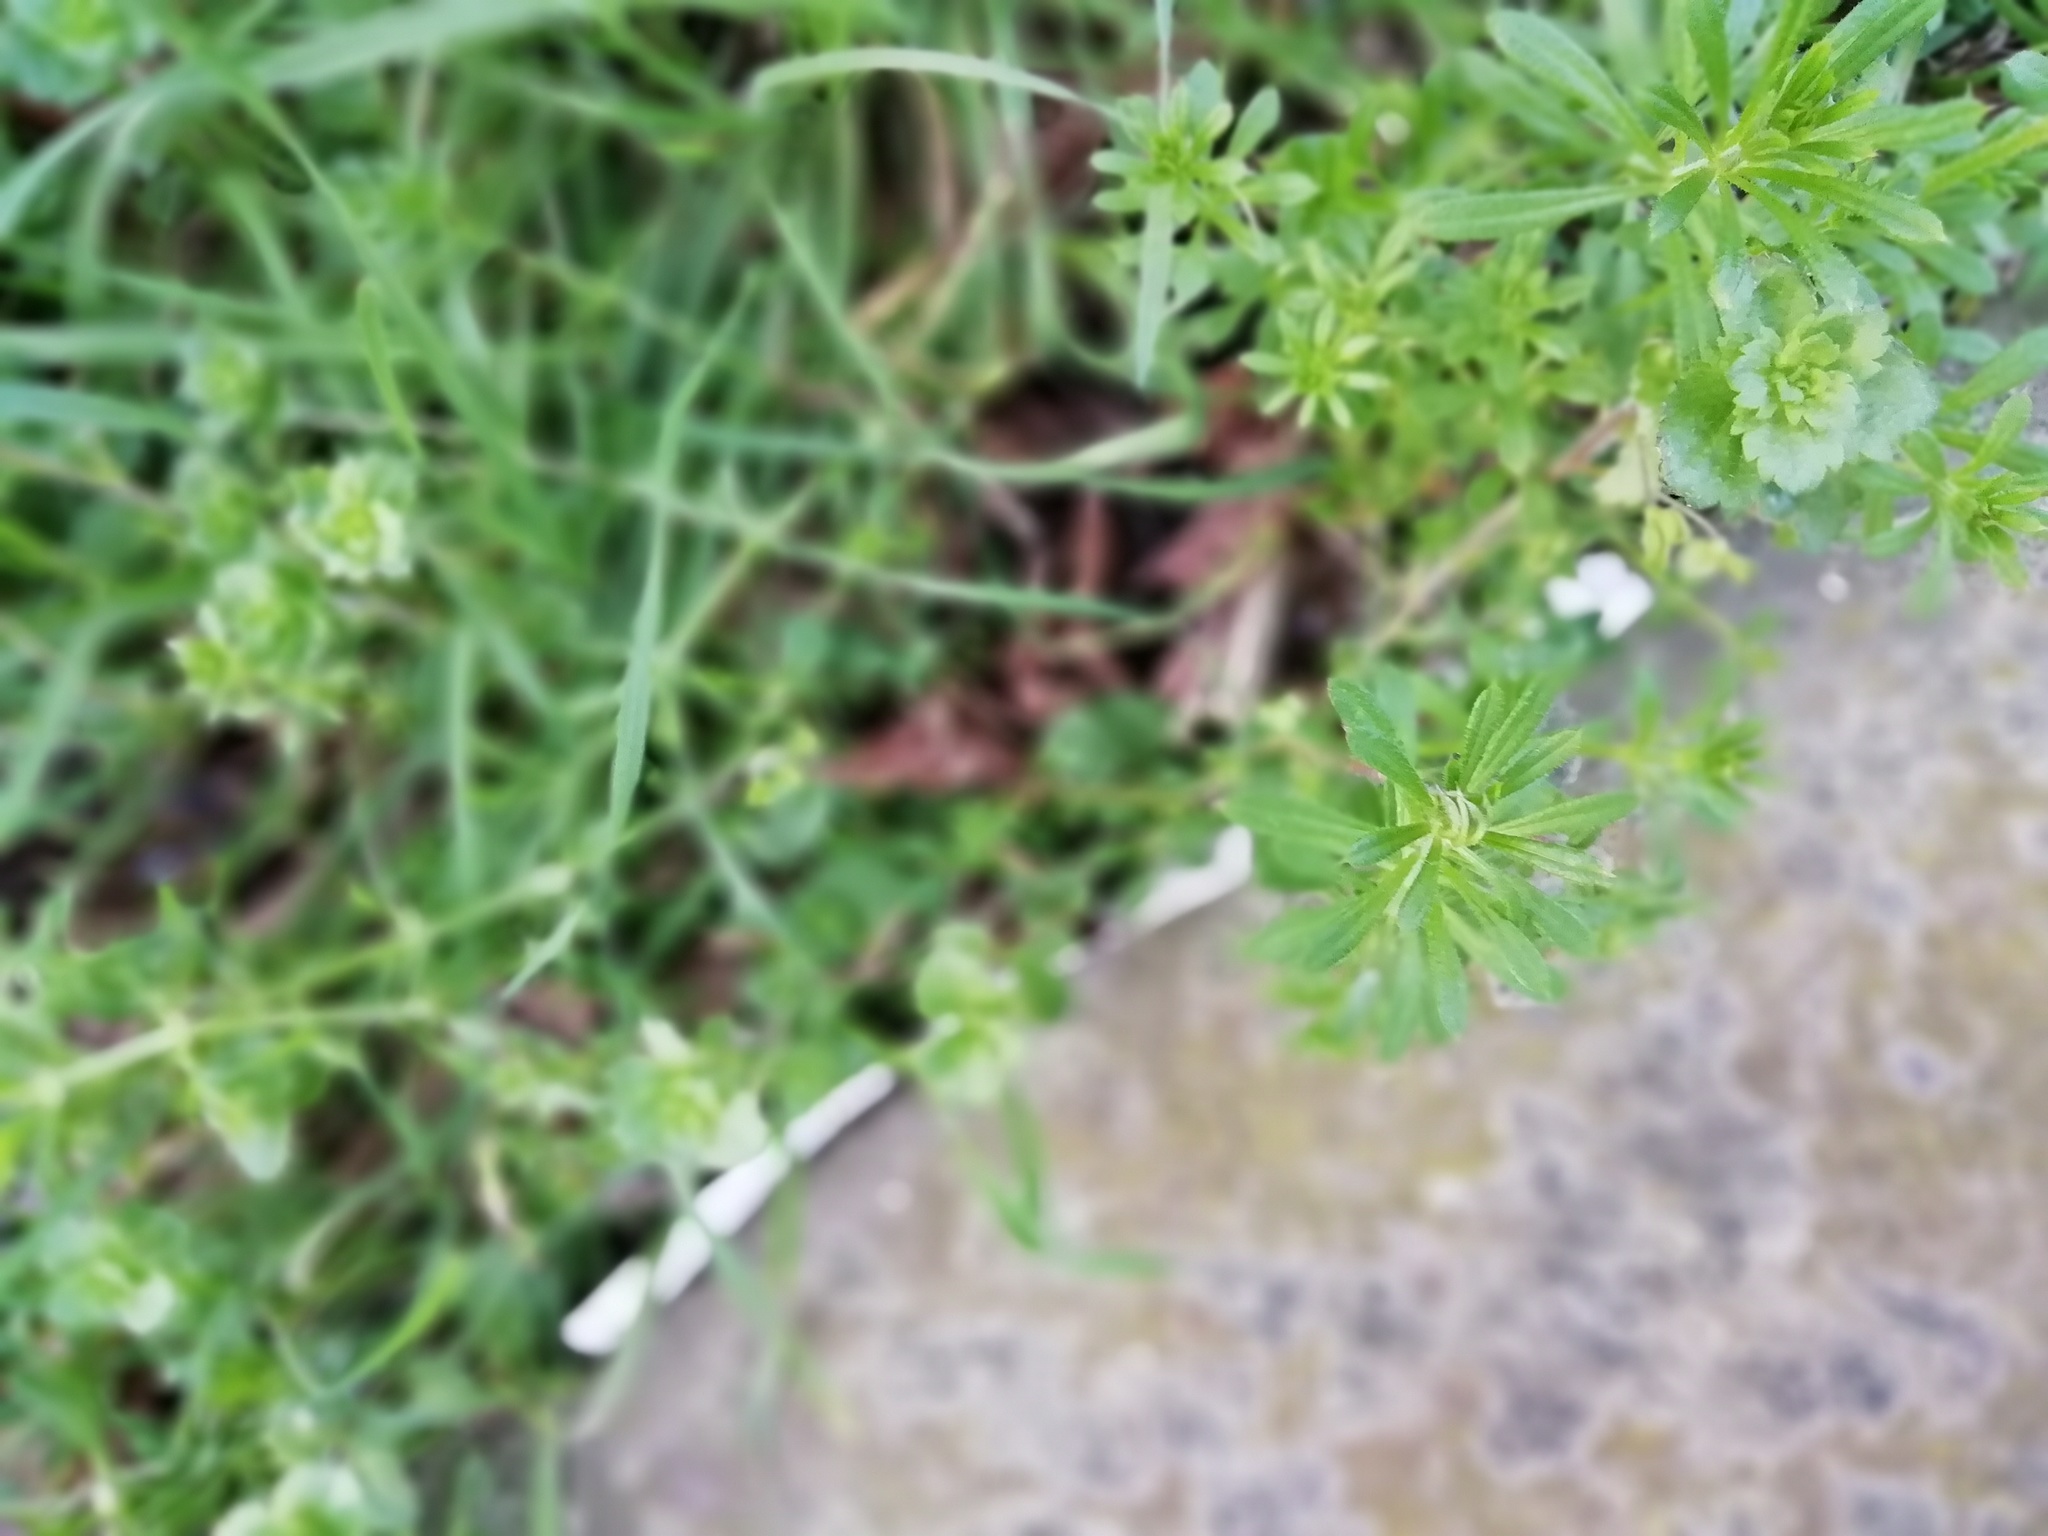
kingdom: Plantae
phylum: Tracheophyta
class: Magnoliopsida
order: Gentianales
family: Rubiaceae
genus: Galium
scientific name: Galium aparine
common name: Cleavers
